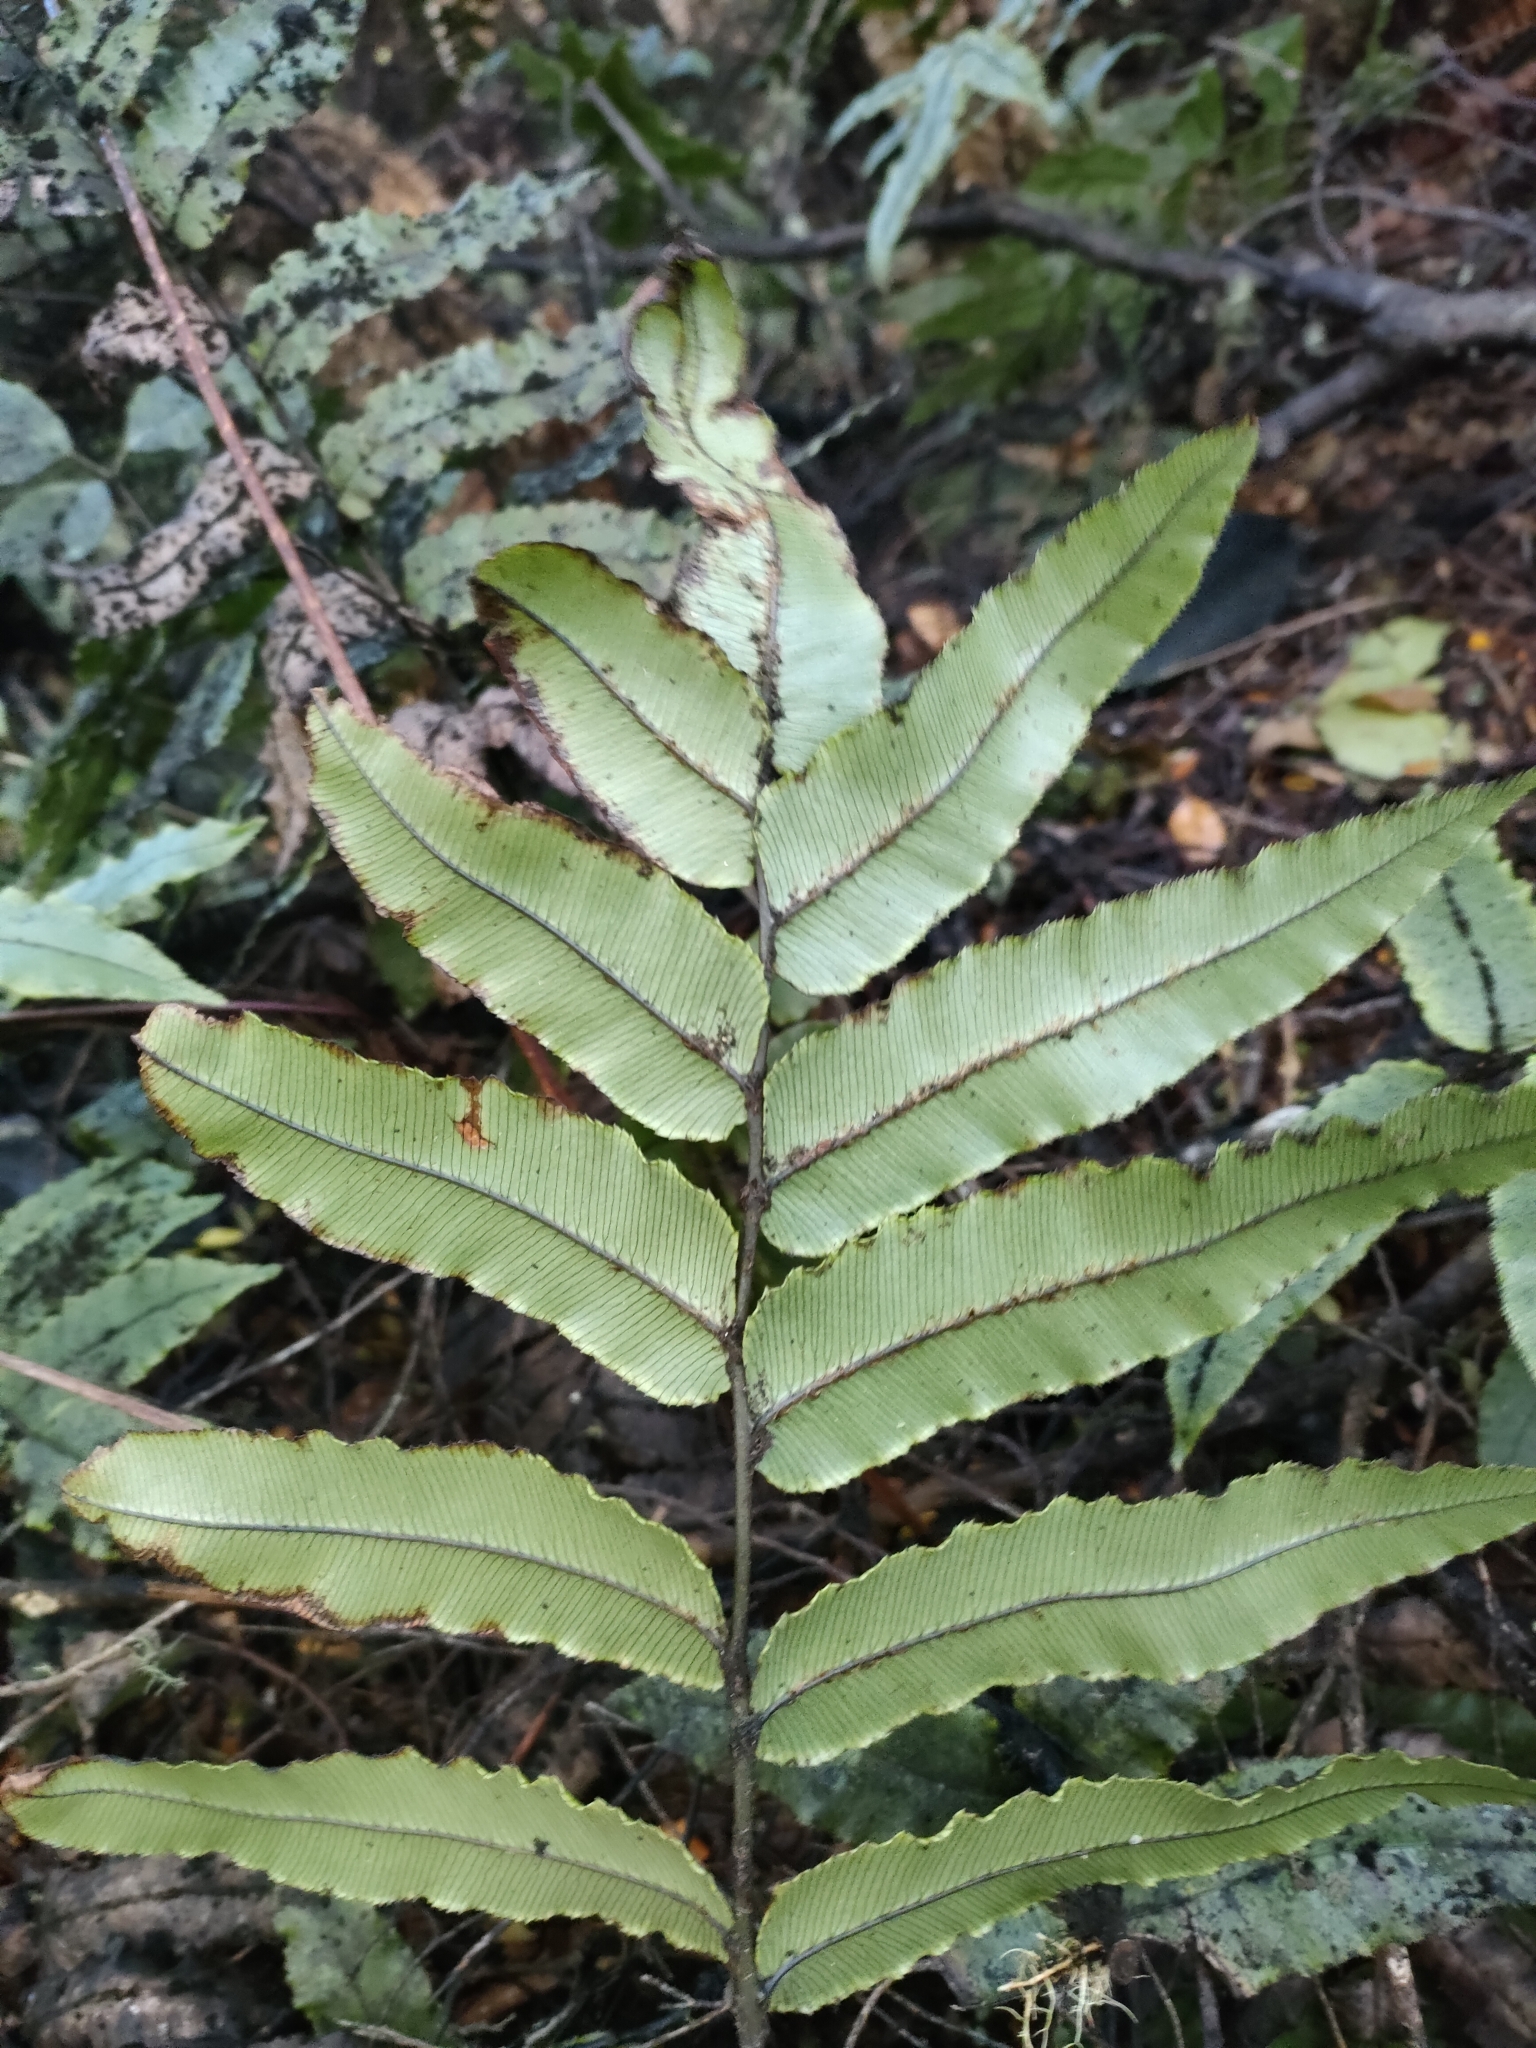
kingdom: Plantae
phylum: Tracheophyta
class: Polypodiopsida
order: Polypodiales
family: Blechnaceae
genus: Parablechnum
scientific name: Parablechnum procerum
